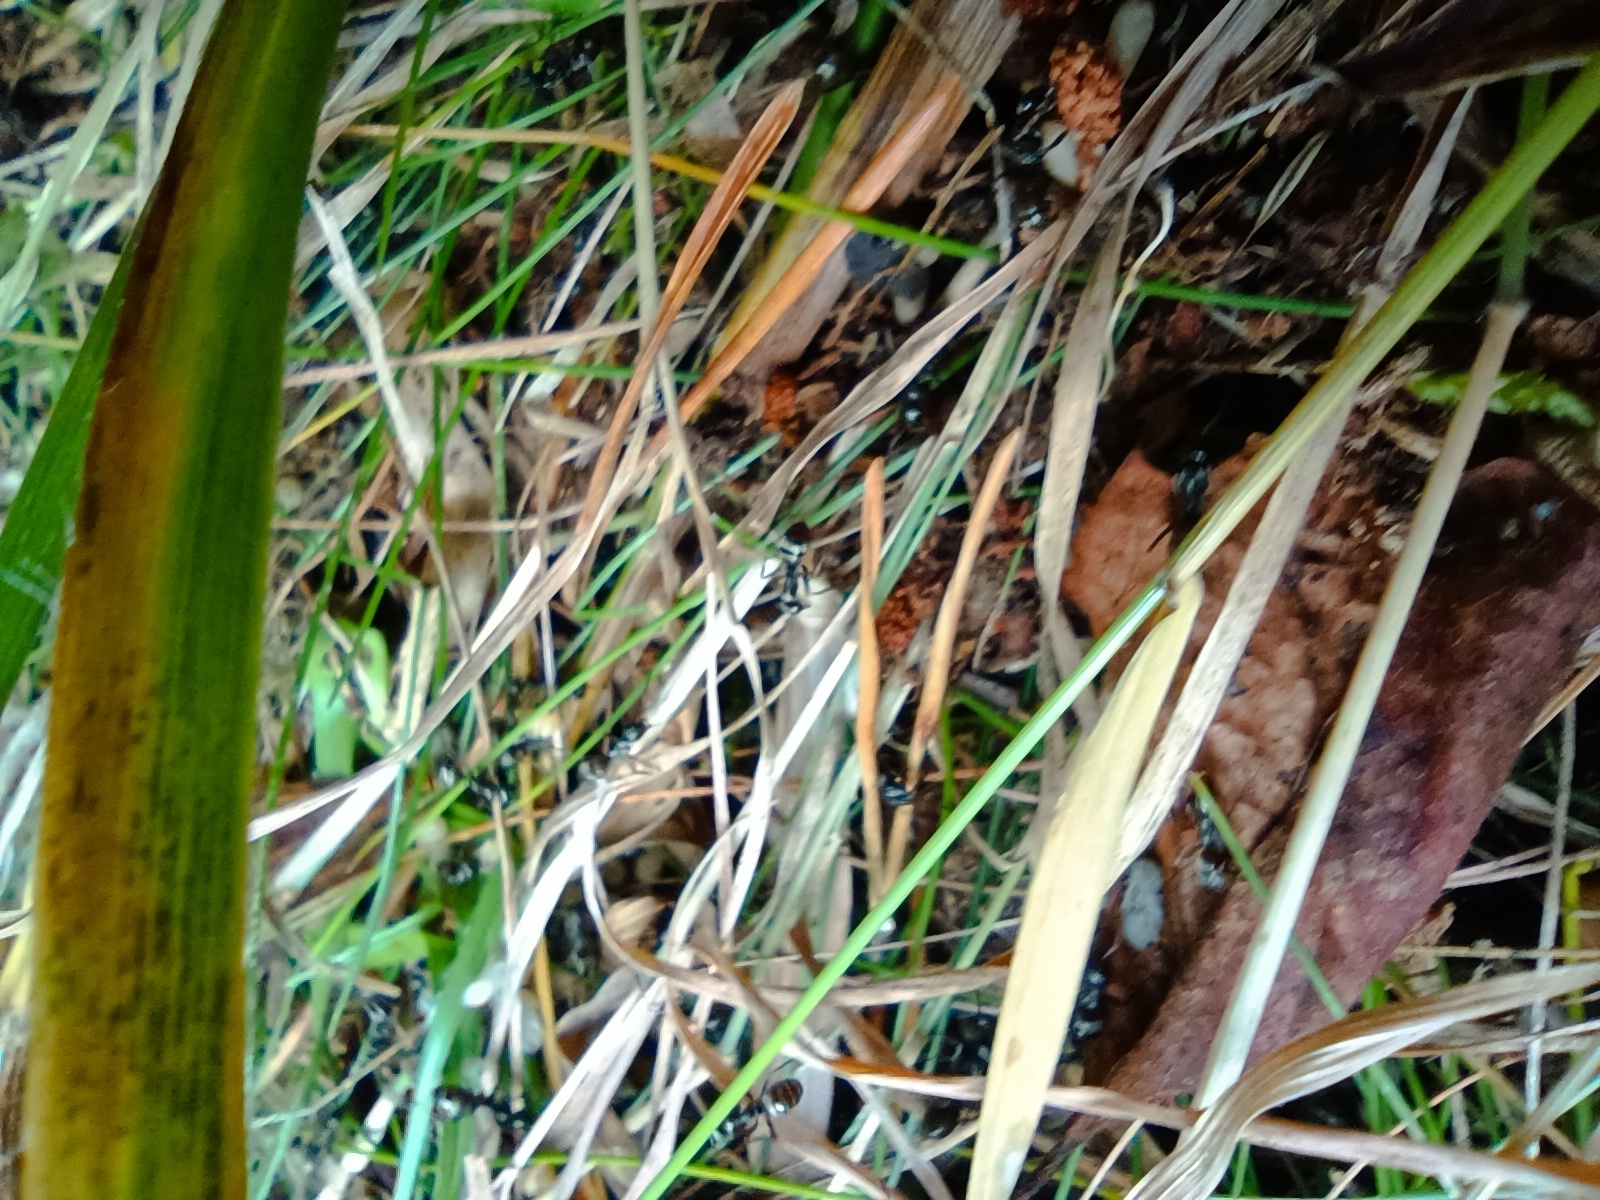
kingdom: Animalia
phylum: Arthropoda
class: Insecta
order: Hymenoptera
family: Formicidae
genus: Formica
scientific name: Formica fusca
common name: Silky ant
